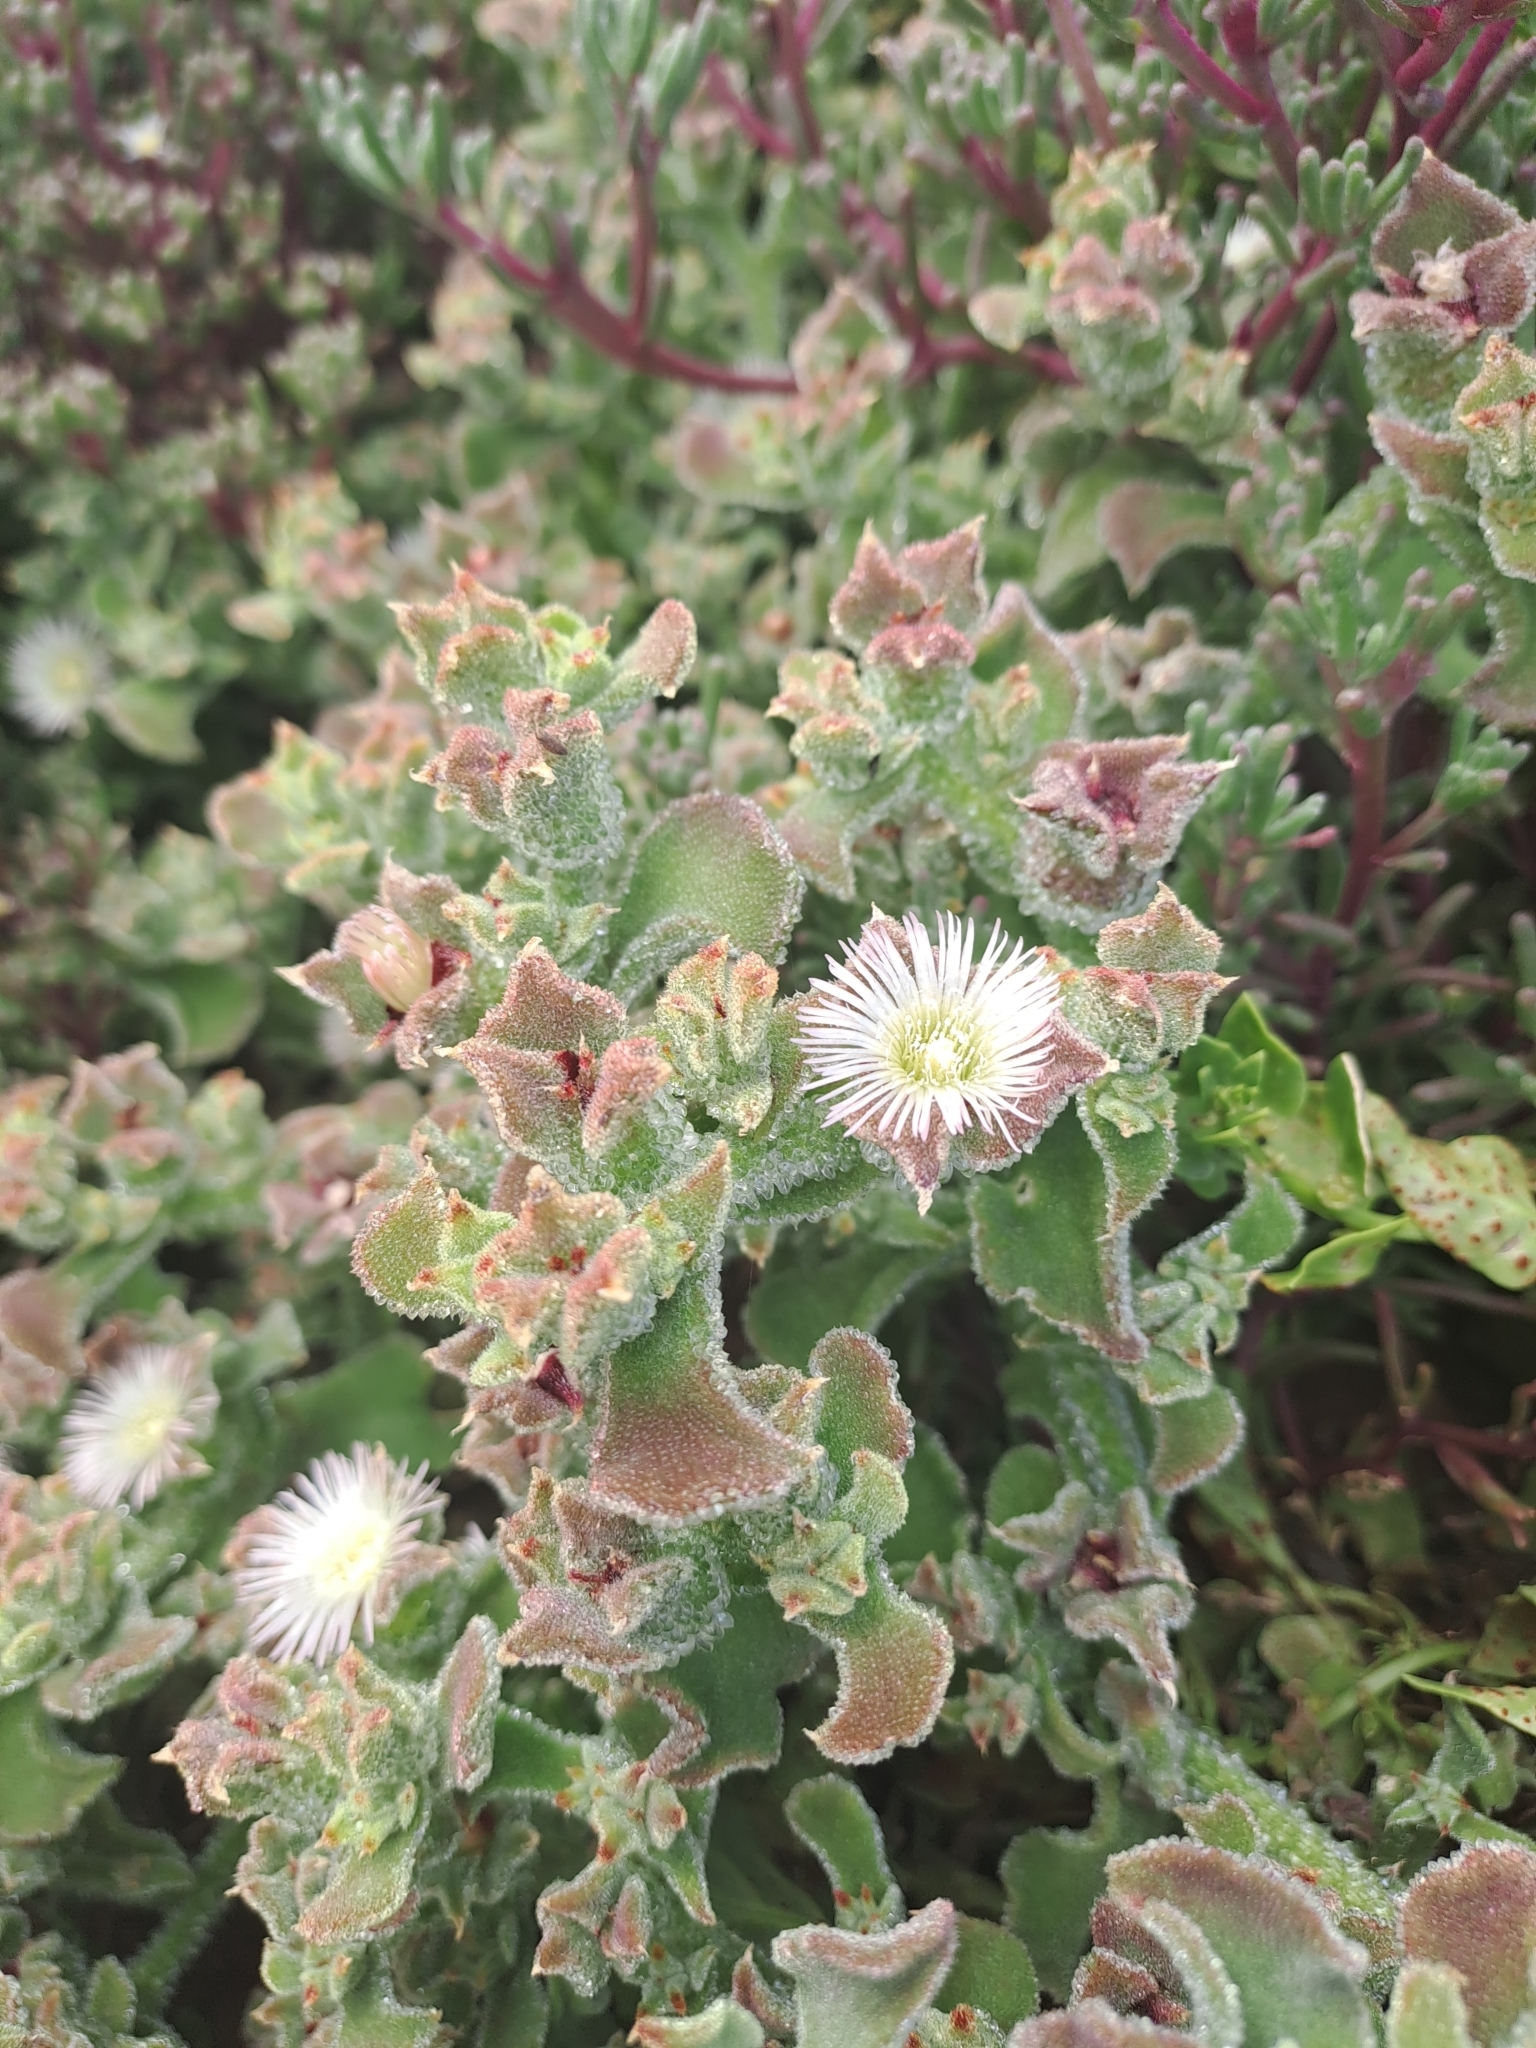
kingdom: Plantae
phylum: Tracheophyta
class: Magnoliopsida
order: Caryophyllales
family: Aizoaceae
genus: Mesembryanthemum
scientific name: Mesembryanthemum crystallinum
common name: Common iceplant
